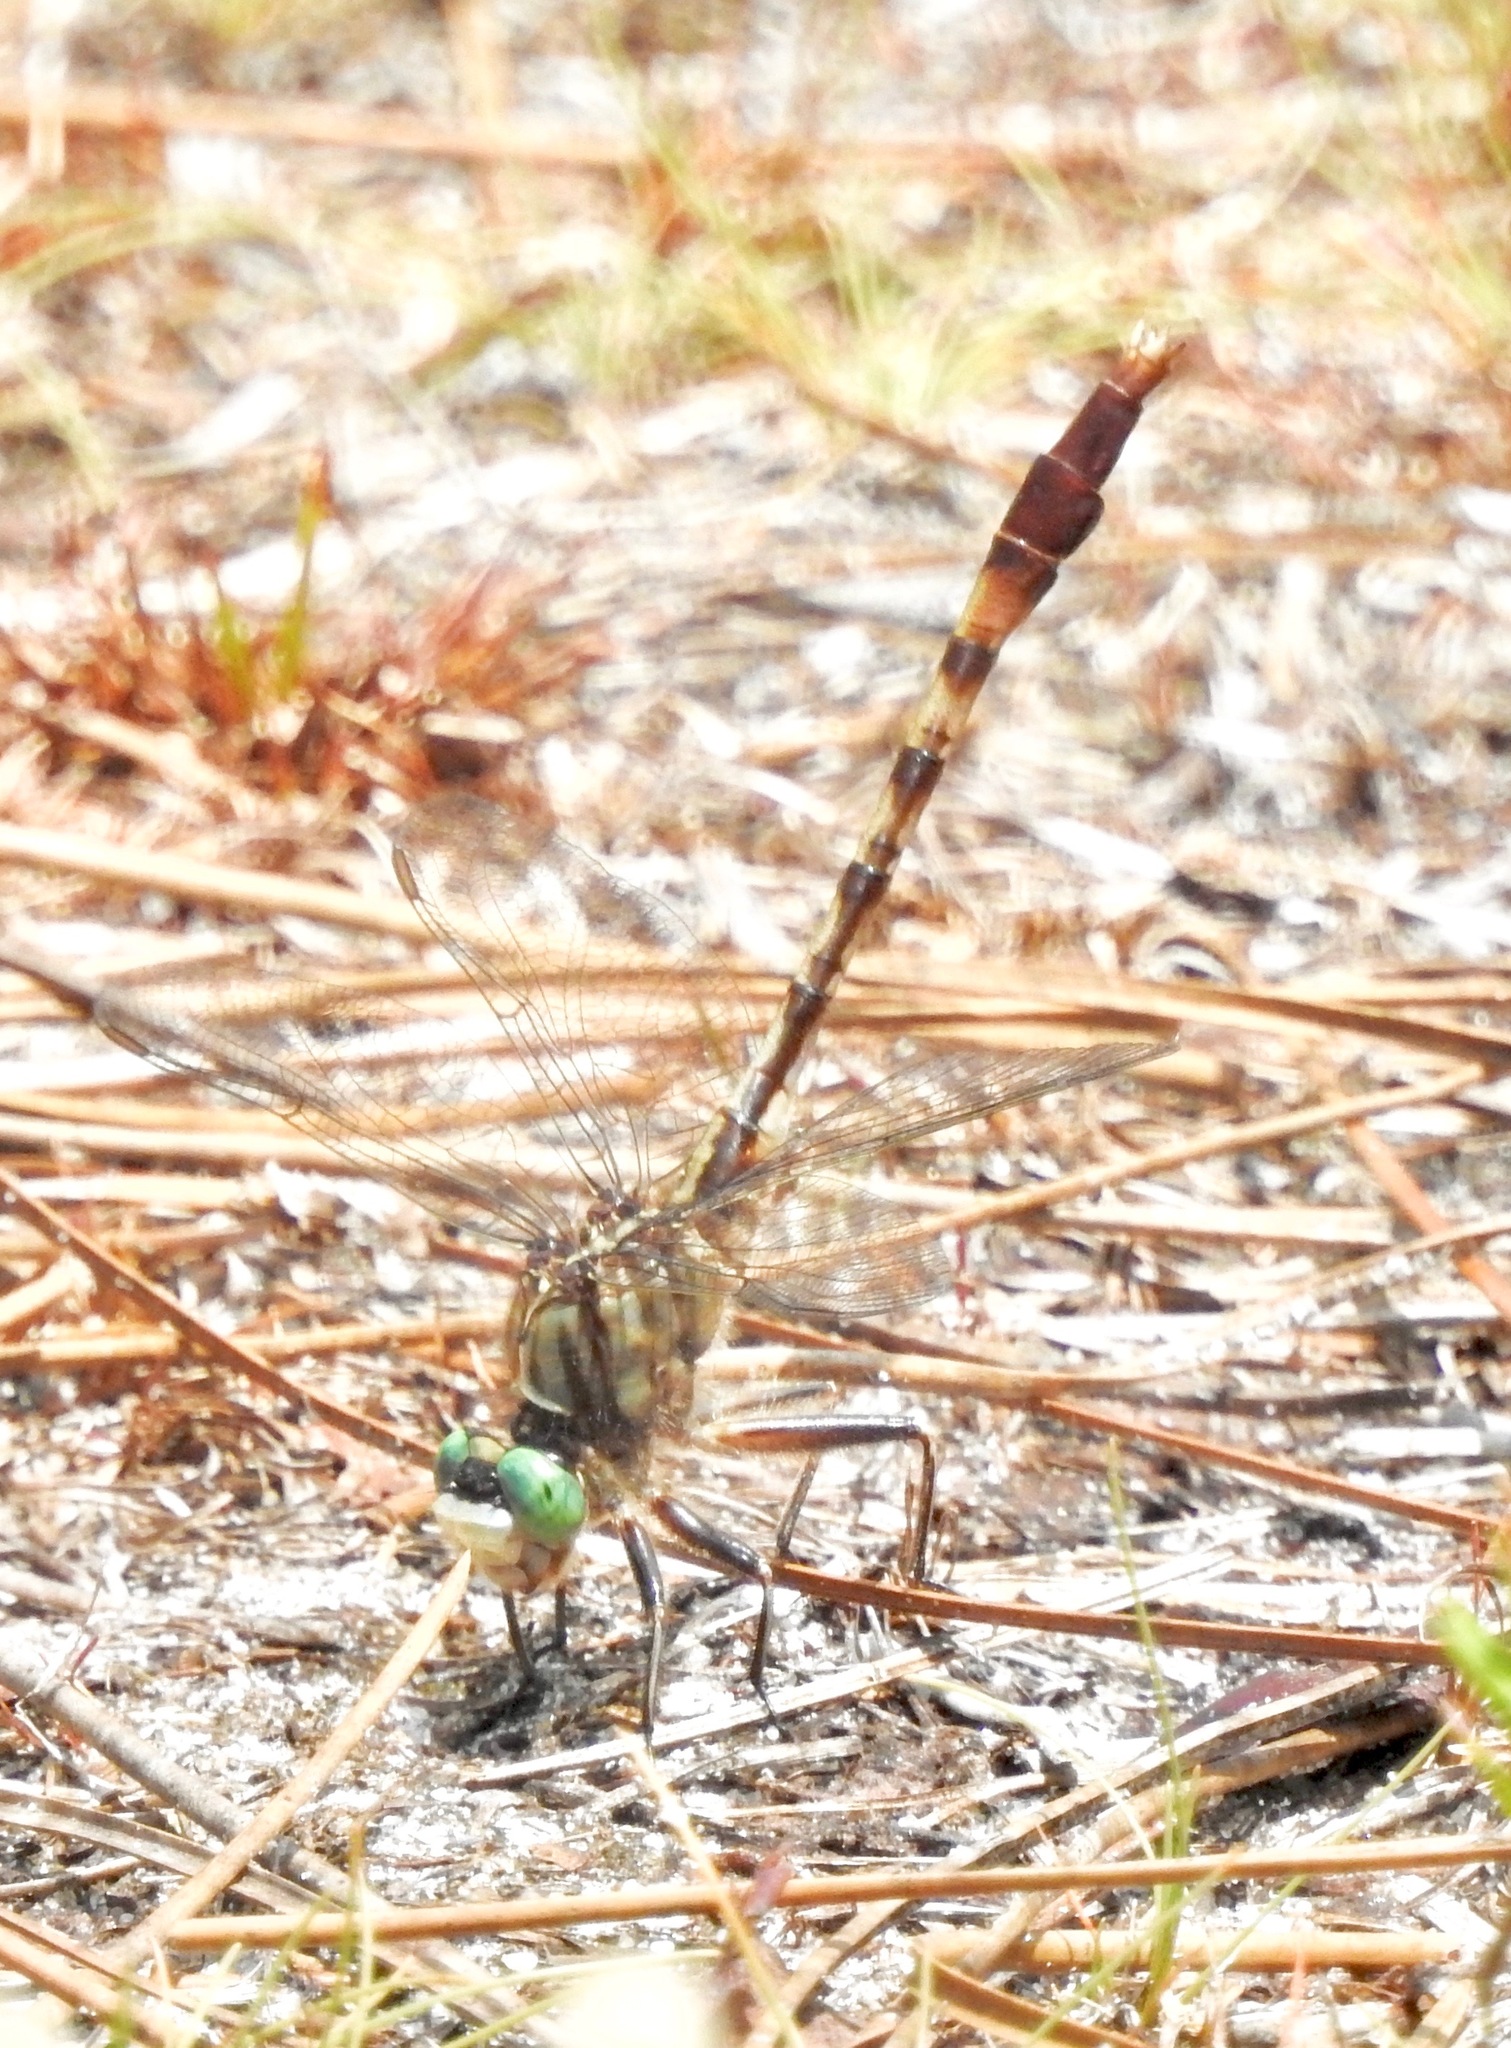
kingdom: Animalia
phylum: Arthropoda
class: Insecta
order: Odonata
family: Gomphidae
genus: Arigomphus
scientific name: Arigomphus pallidus
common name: Gray-green clubtail
